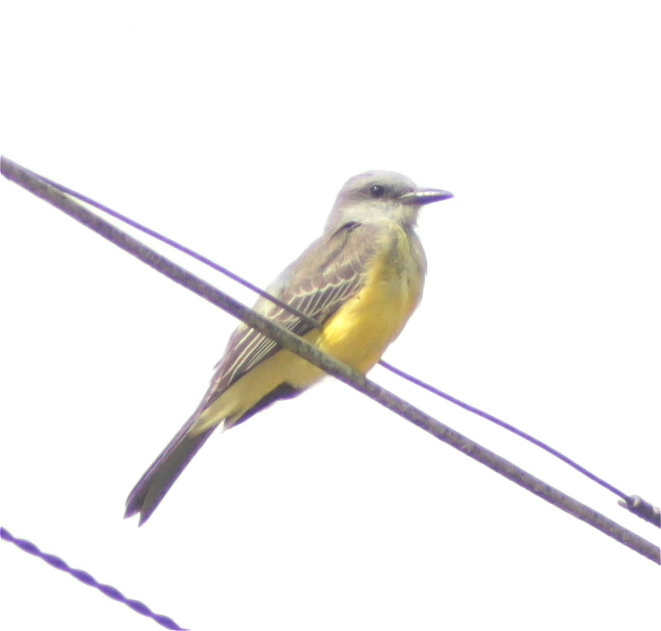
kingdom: Animalia
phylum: Chordata
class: Aves
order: Passeriformes
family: Tyrannidae
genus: Tyrannus
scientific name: Tyrannus melancholicus
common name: Tropical kingbird
